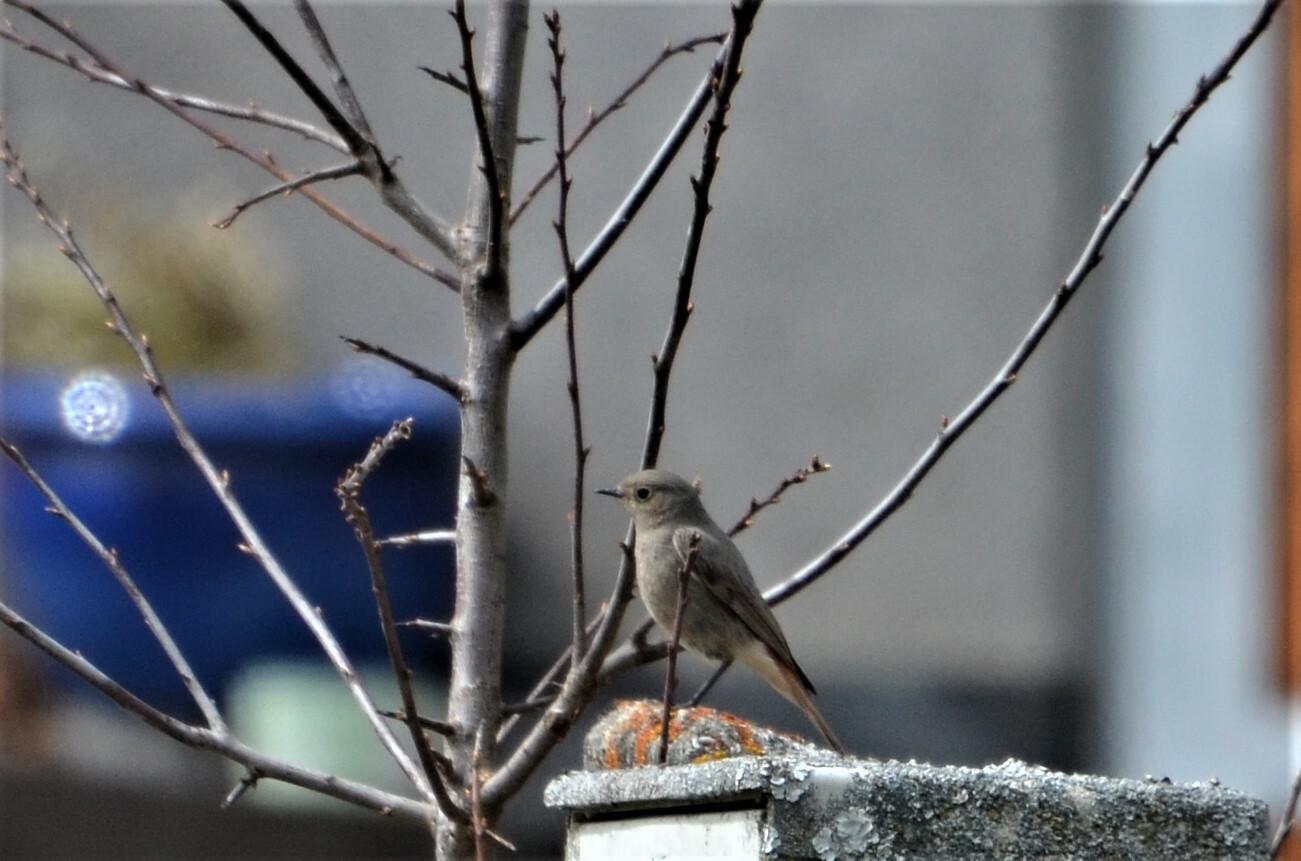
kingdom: Animalia
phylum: Chordata
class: Aves
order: Passeriformes
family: Muscicapidae
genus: Phoenicurus
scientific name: Phoenicurus ochruros
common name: Black redstart
